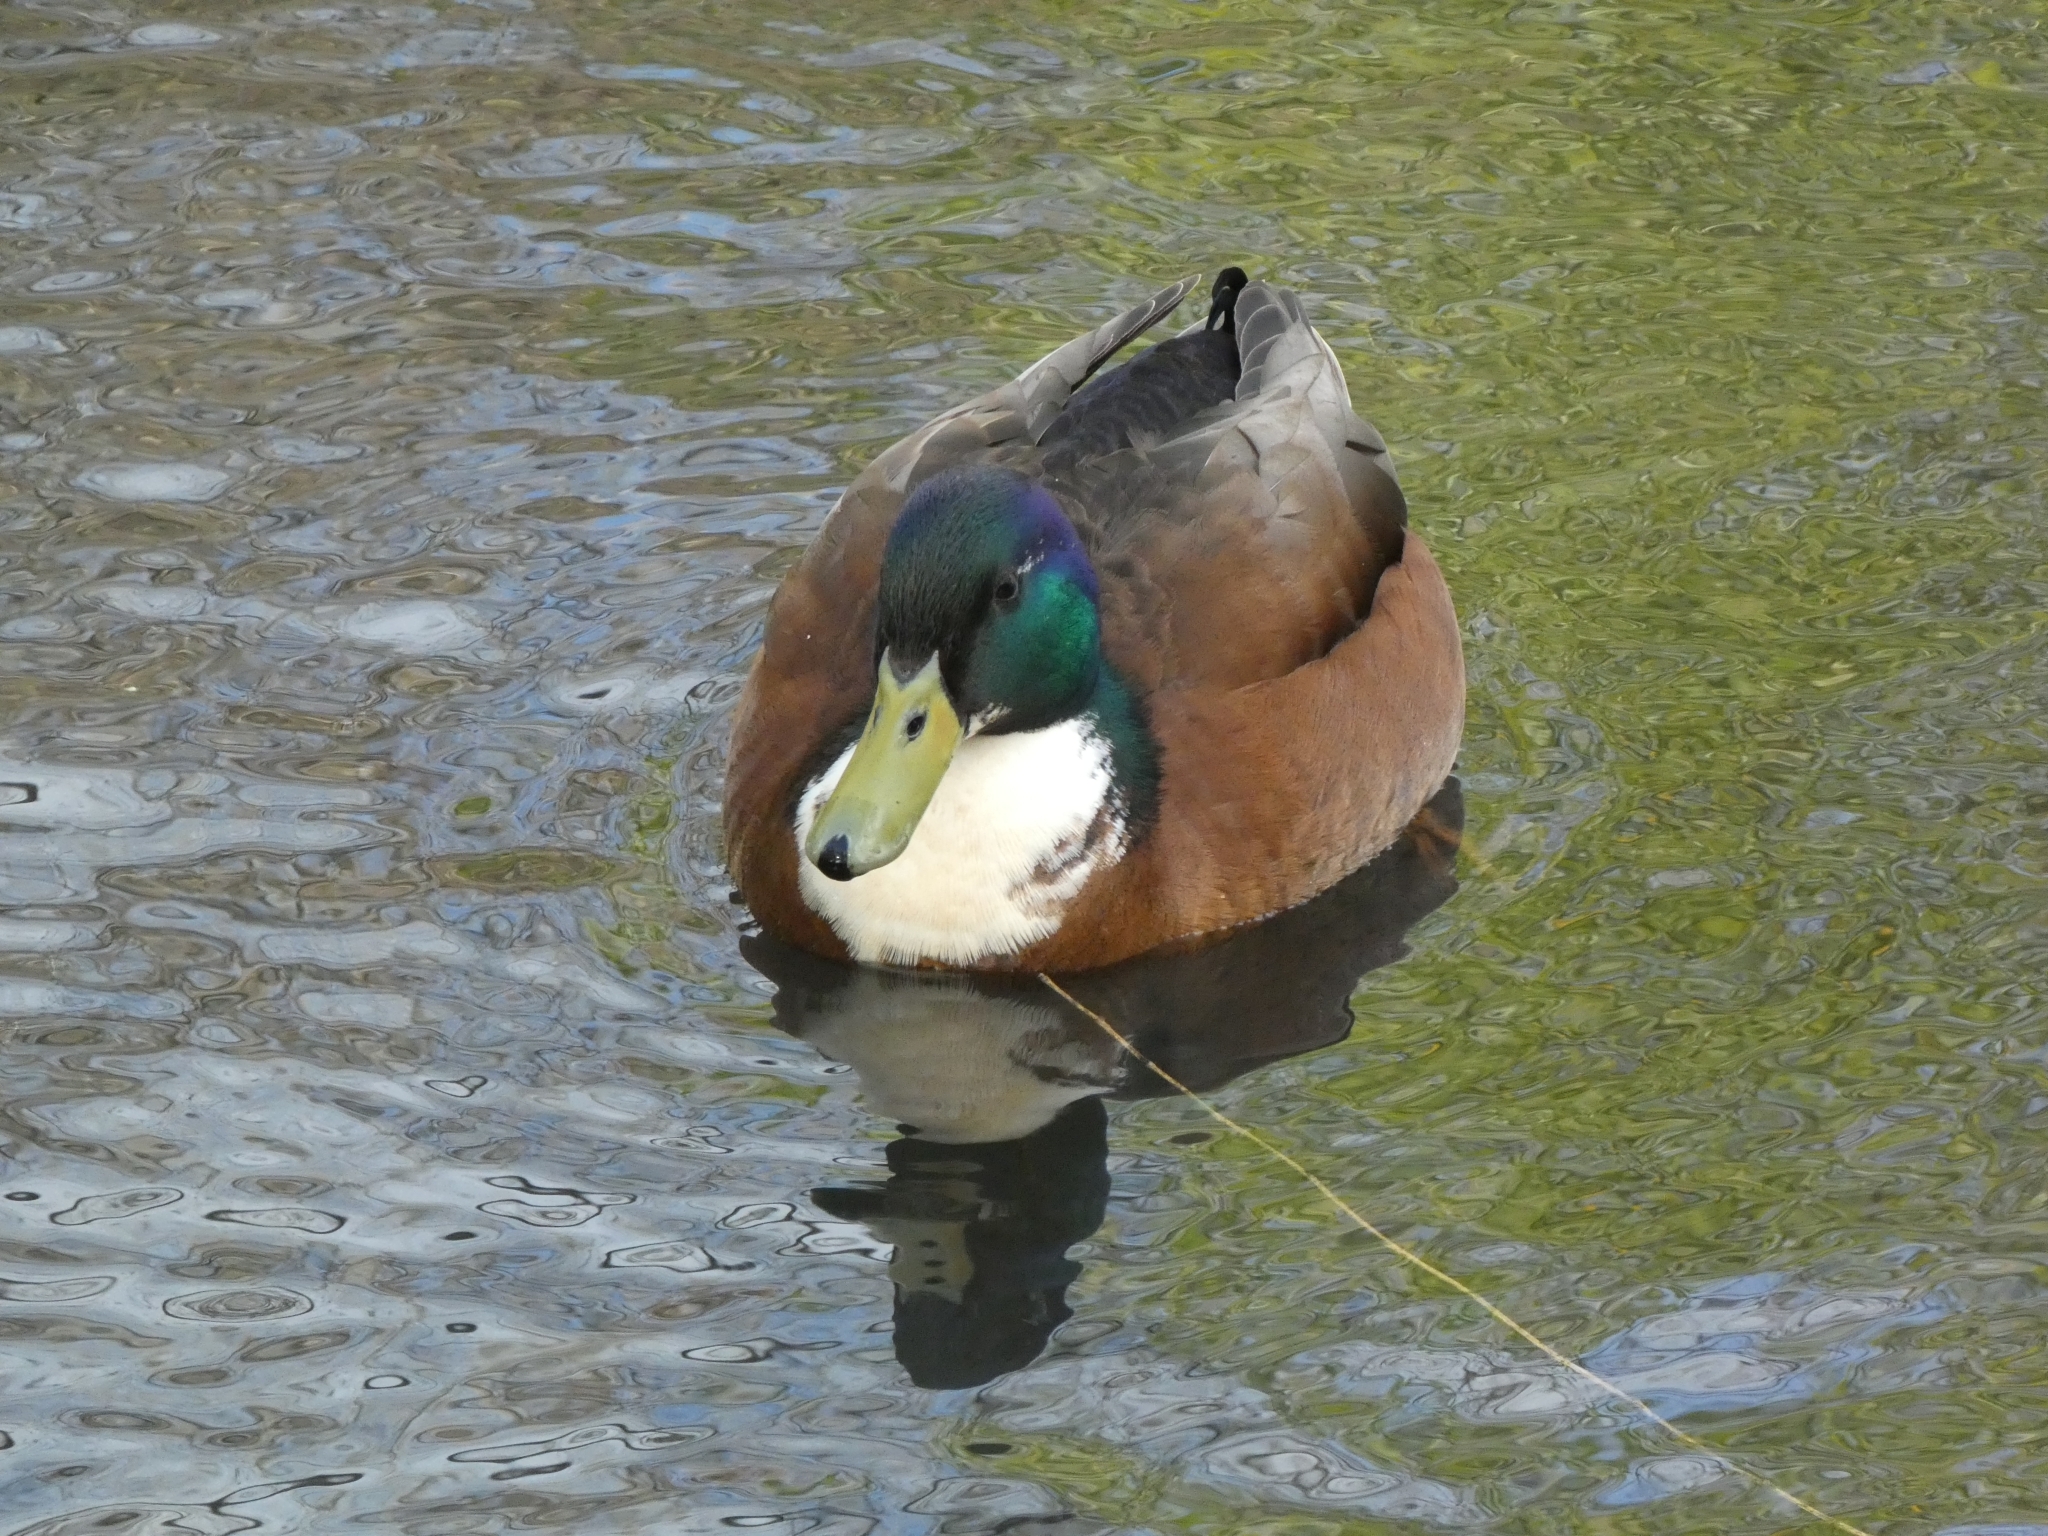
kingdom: Animalia
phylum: Chordata
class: Aves
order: Anseriformes
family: Anatidae
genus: Anas
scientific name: Anas platyrhynchos
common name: Mallard
